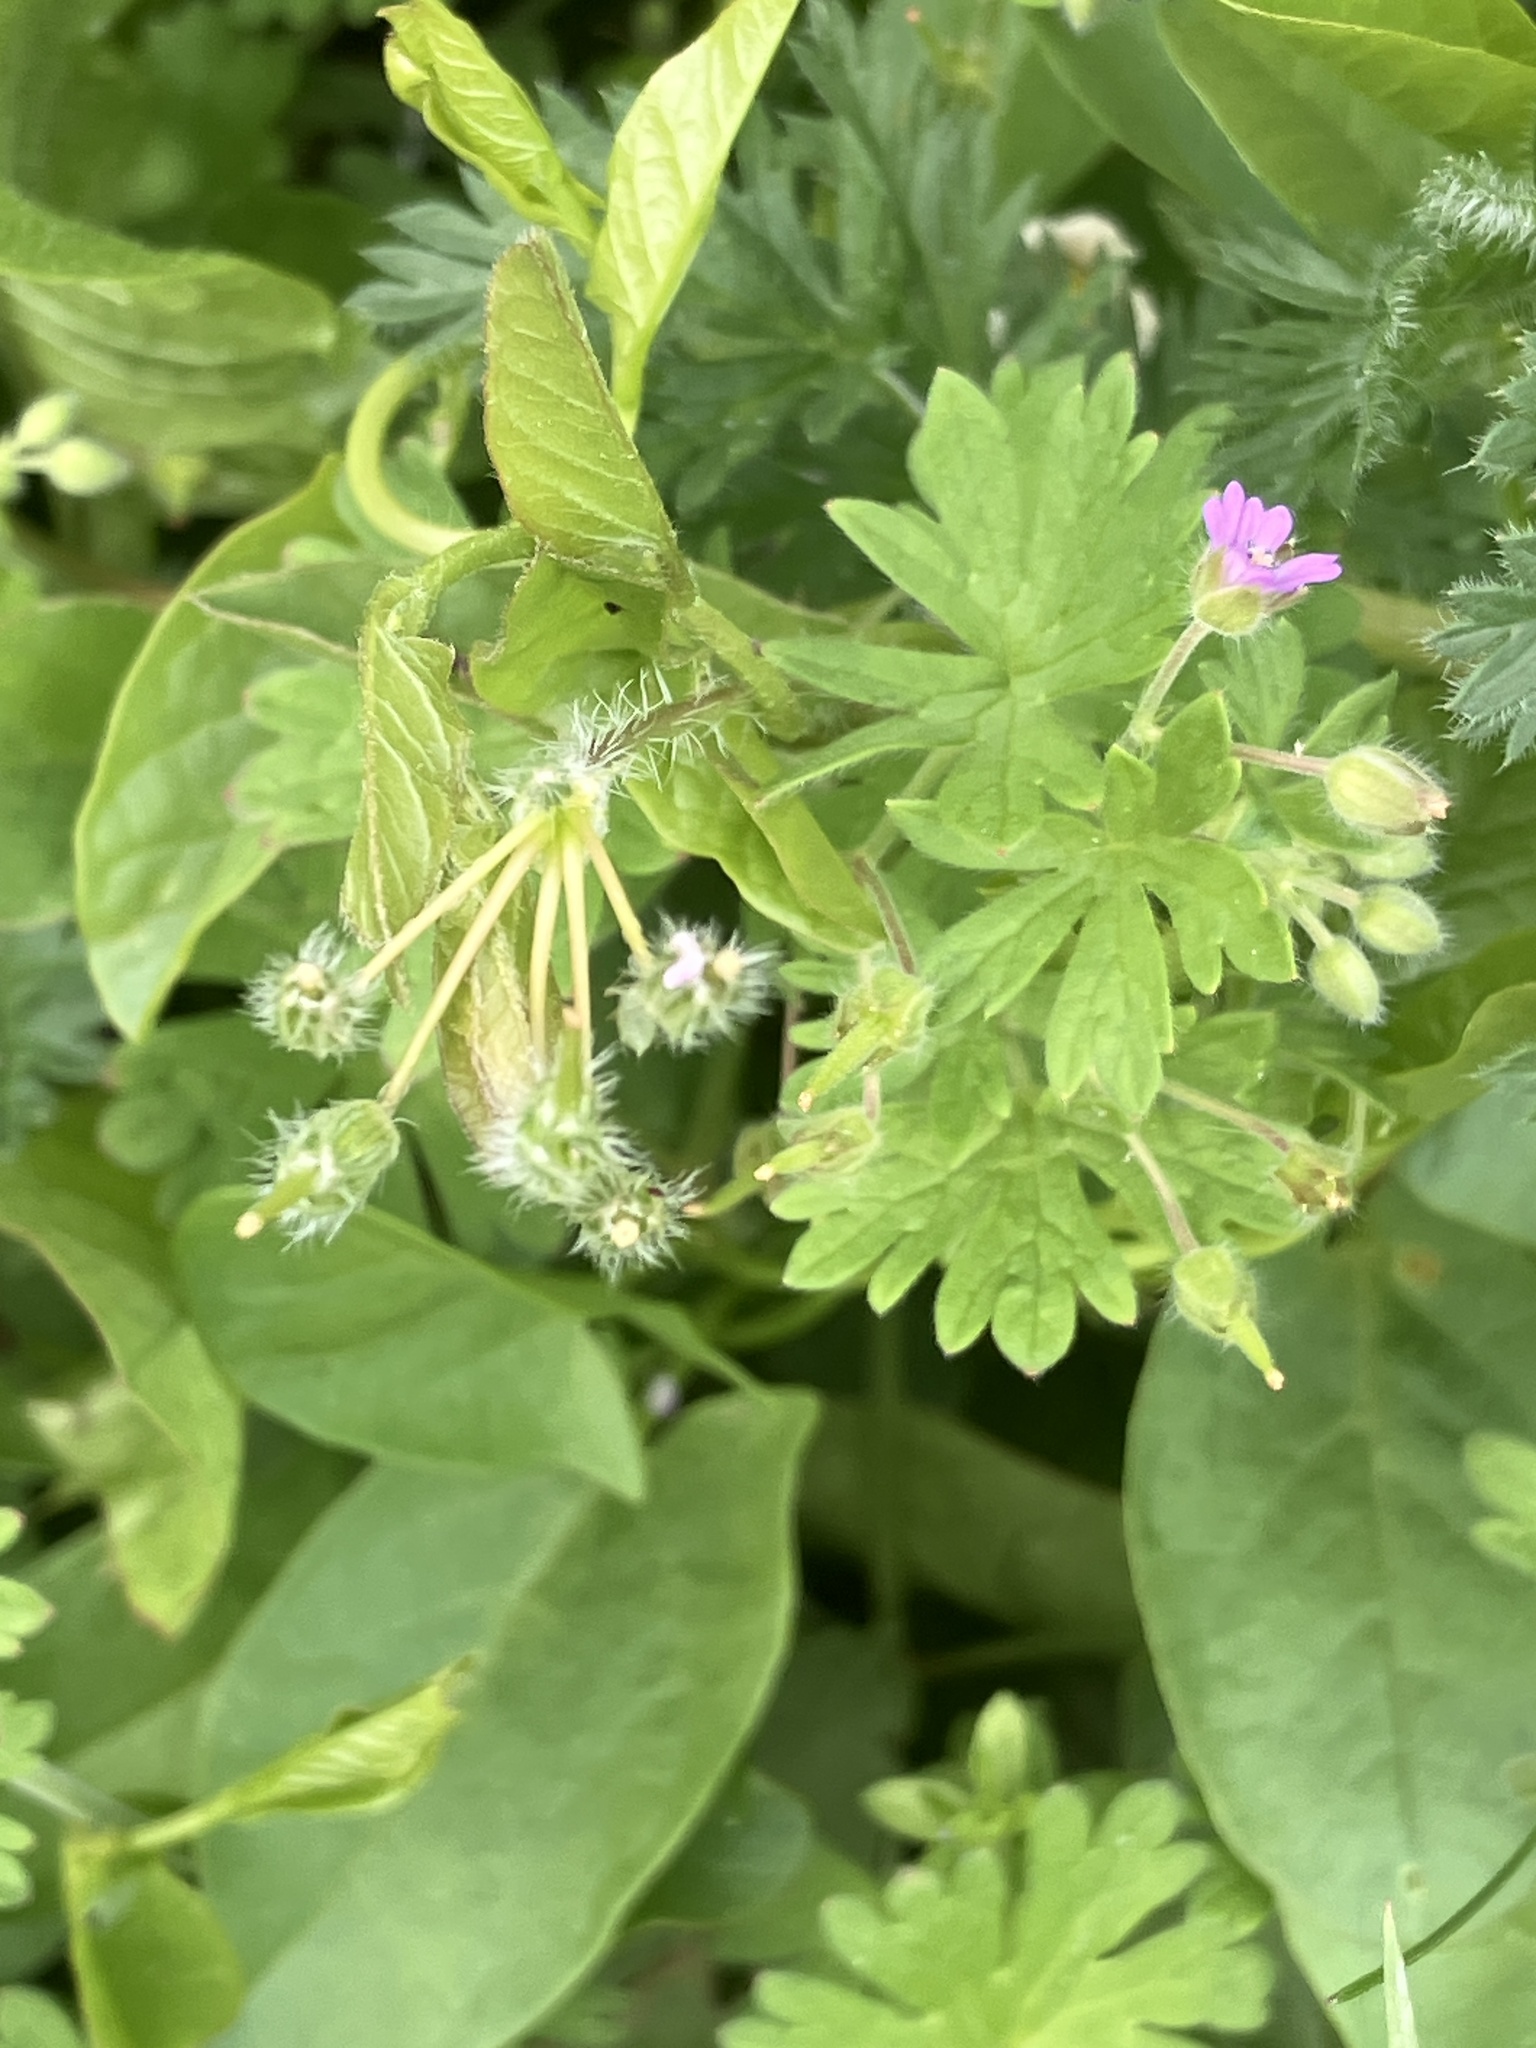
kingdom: Plantae
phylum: Tracheophyta
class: Magnoliopsida
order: Geraniales
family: Geraniaceae
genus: Geranium
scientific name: Geranium pusillum
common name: Small geranium
